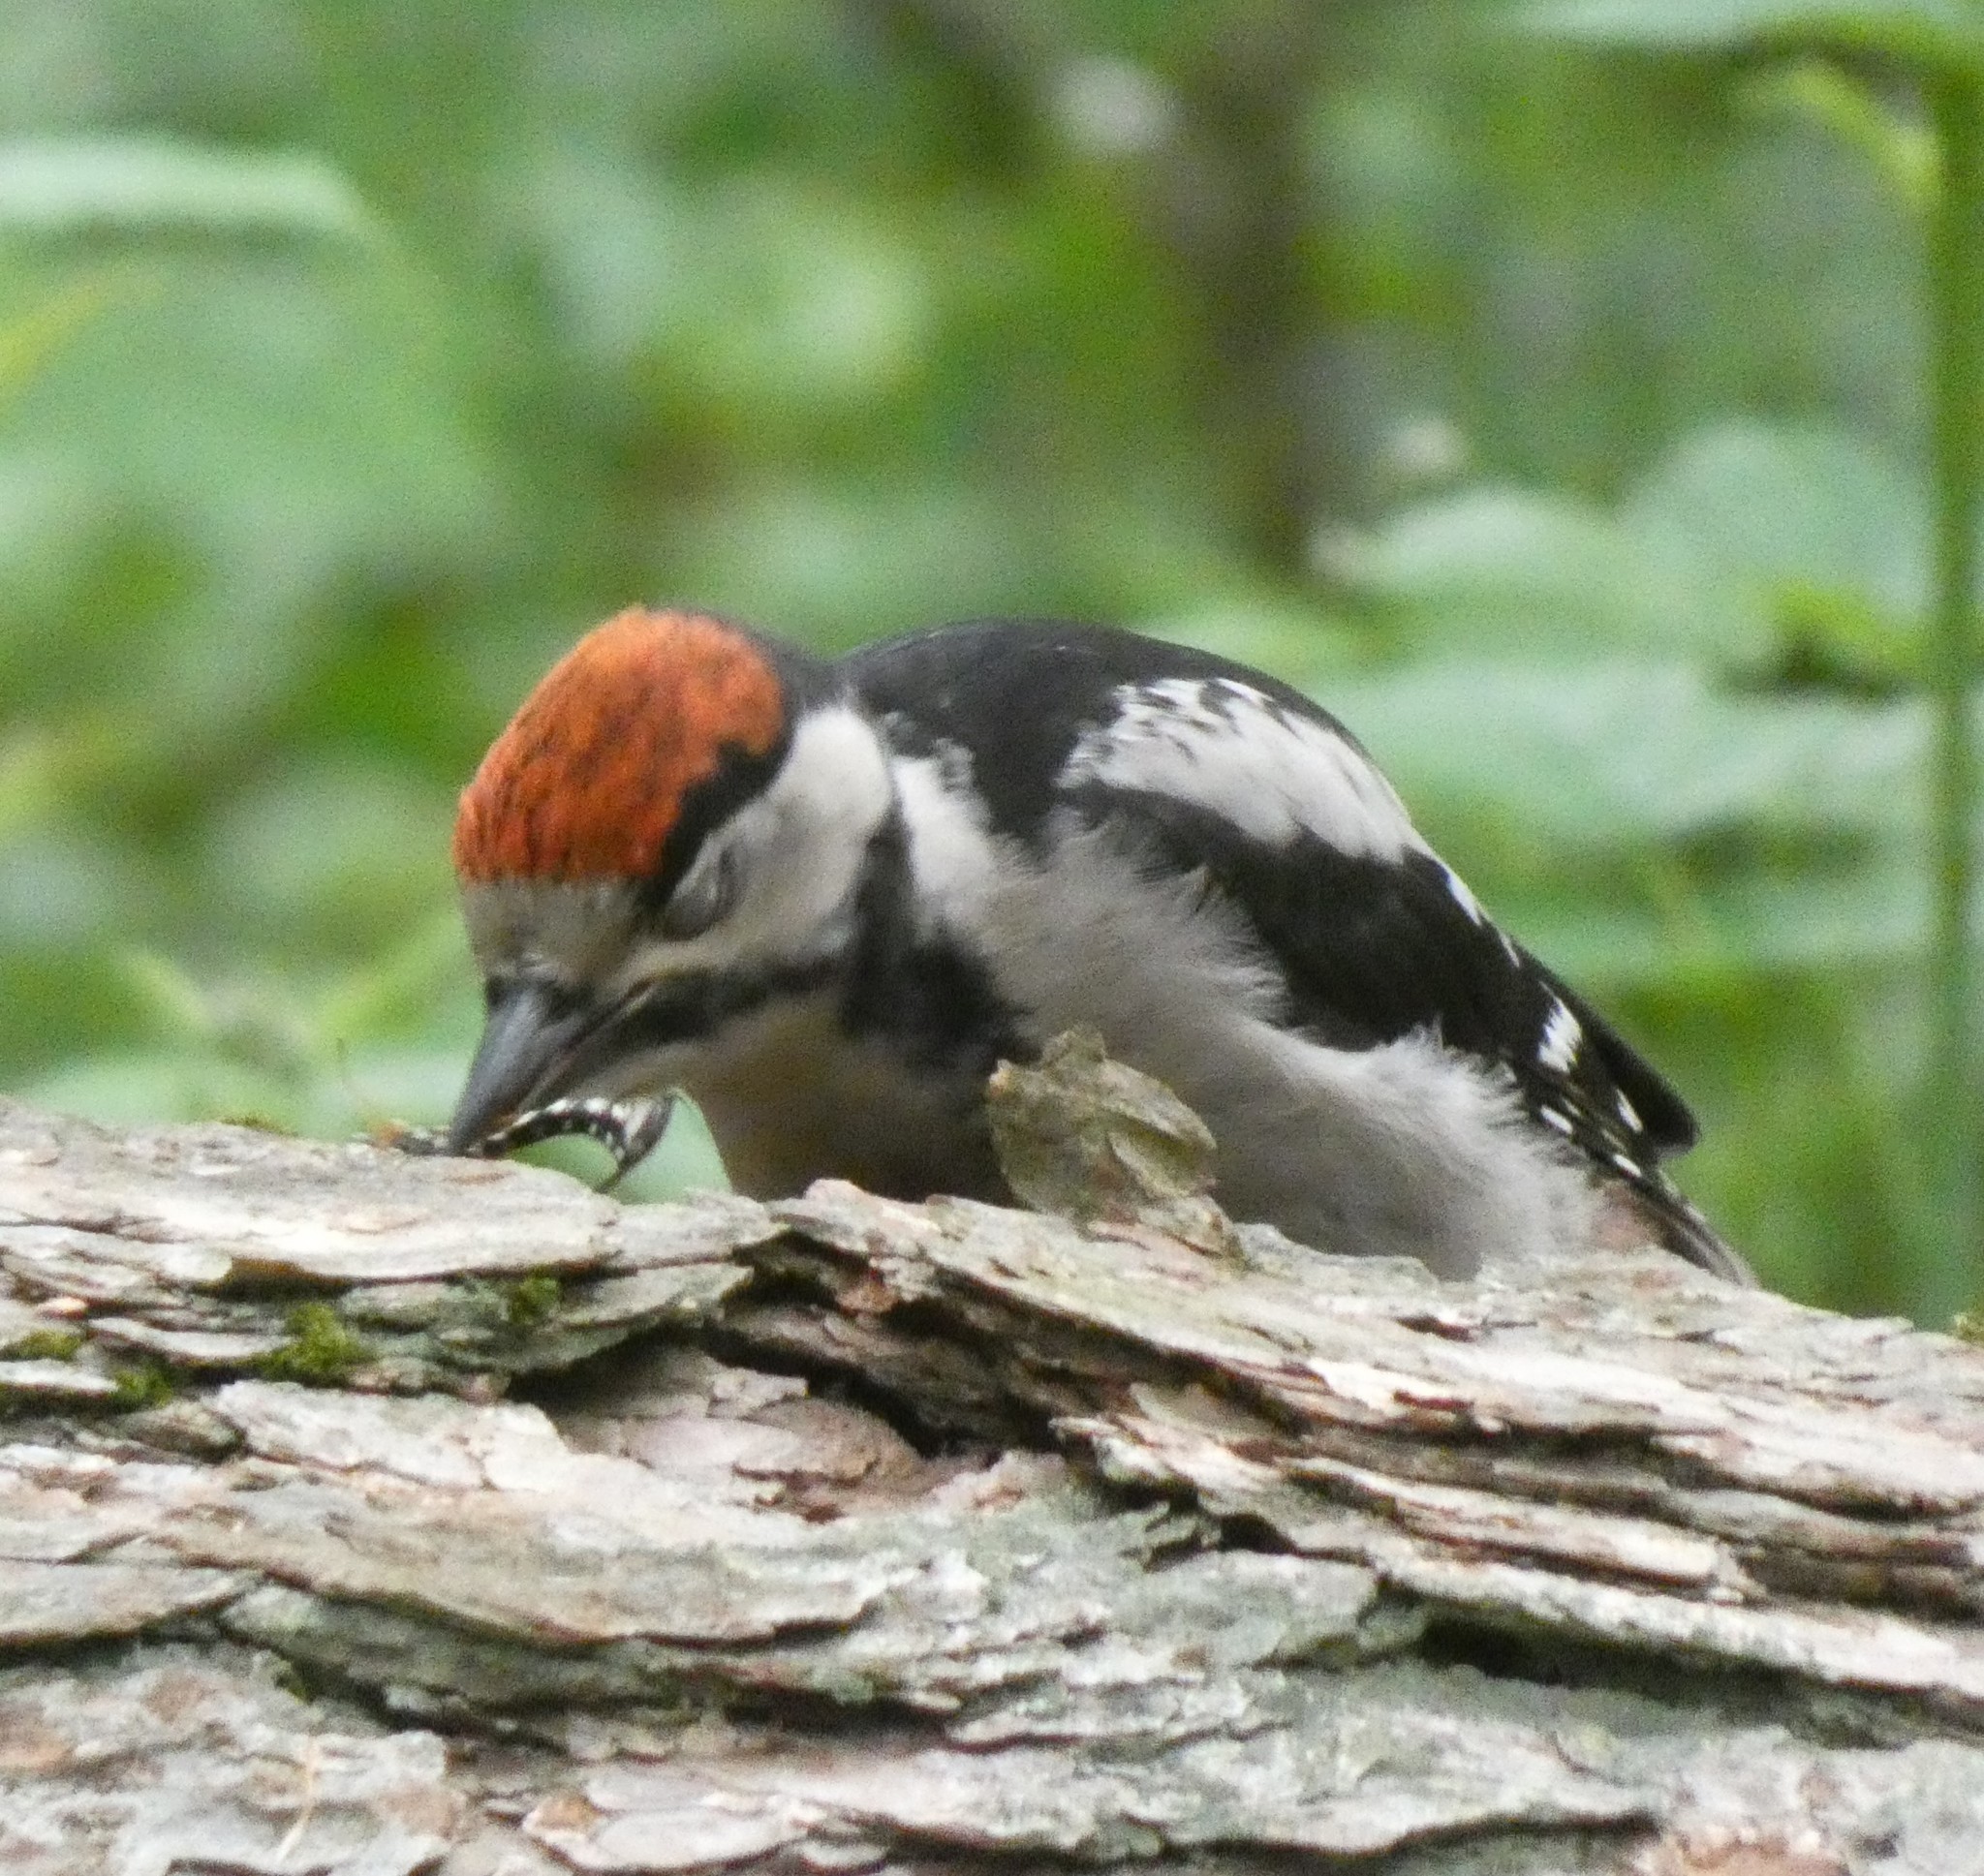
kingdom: Animalia
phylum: Arthropoda
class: Insecta
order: Hymenoptera
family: Ichneumonidae
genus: Rhyssa
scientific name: Rhyssa persuasoria
